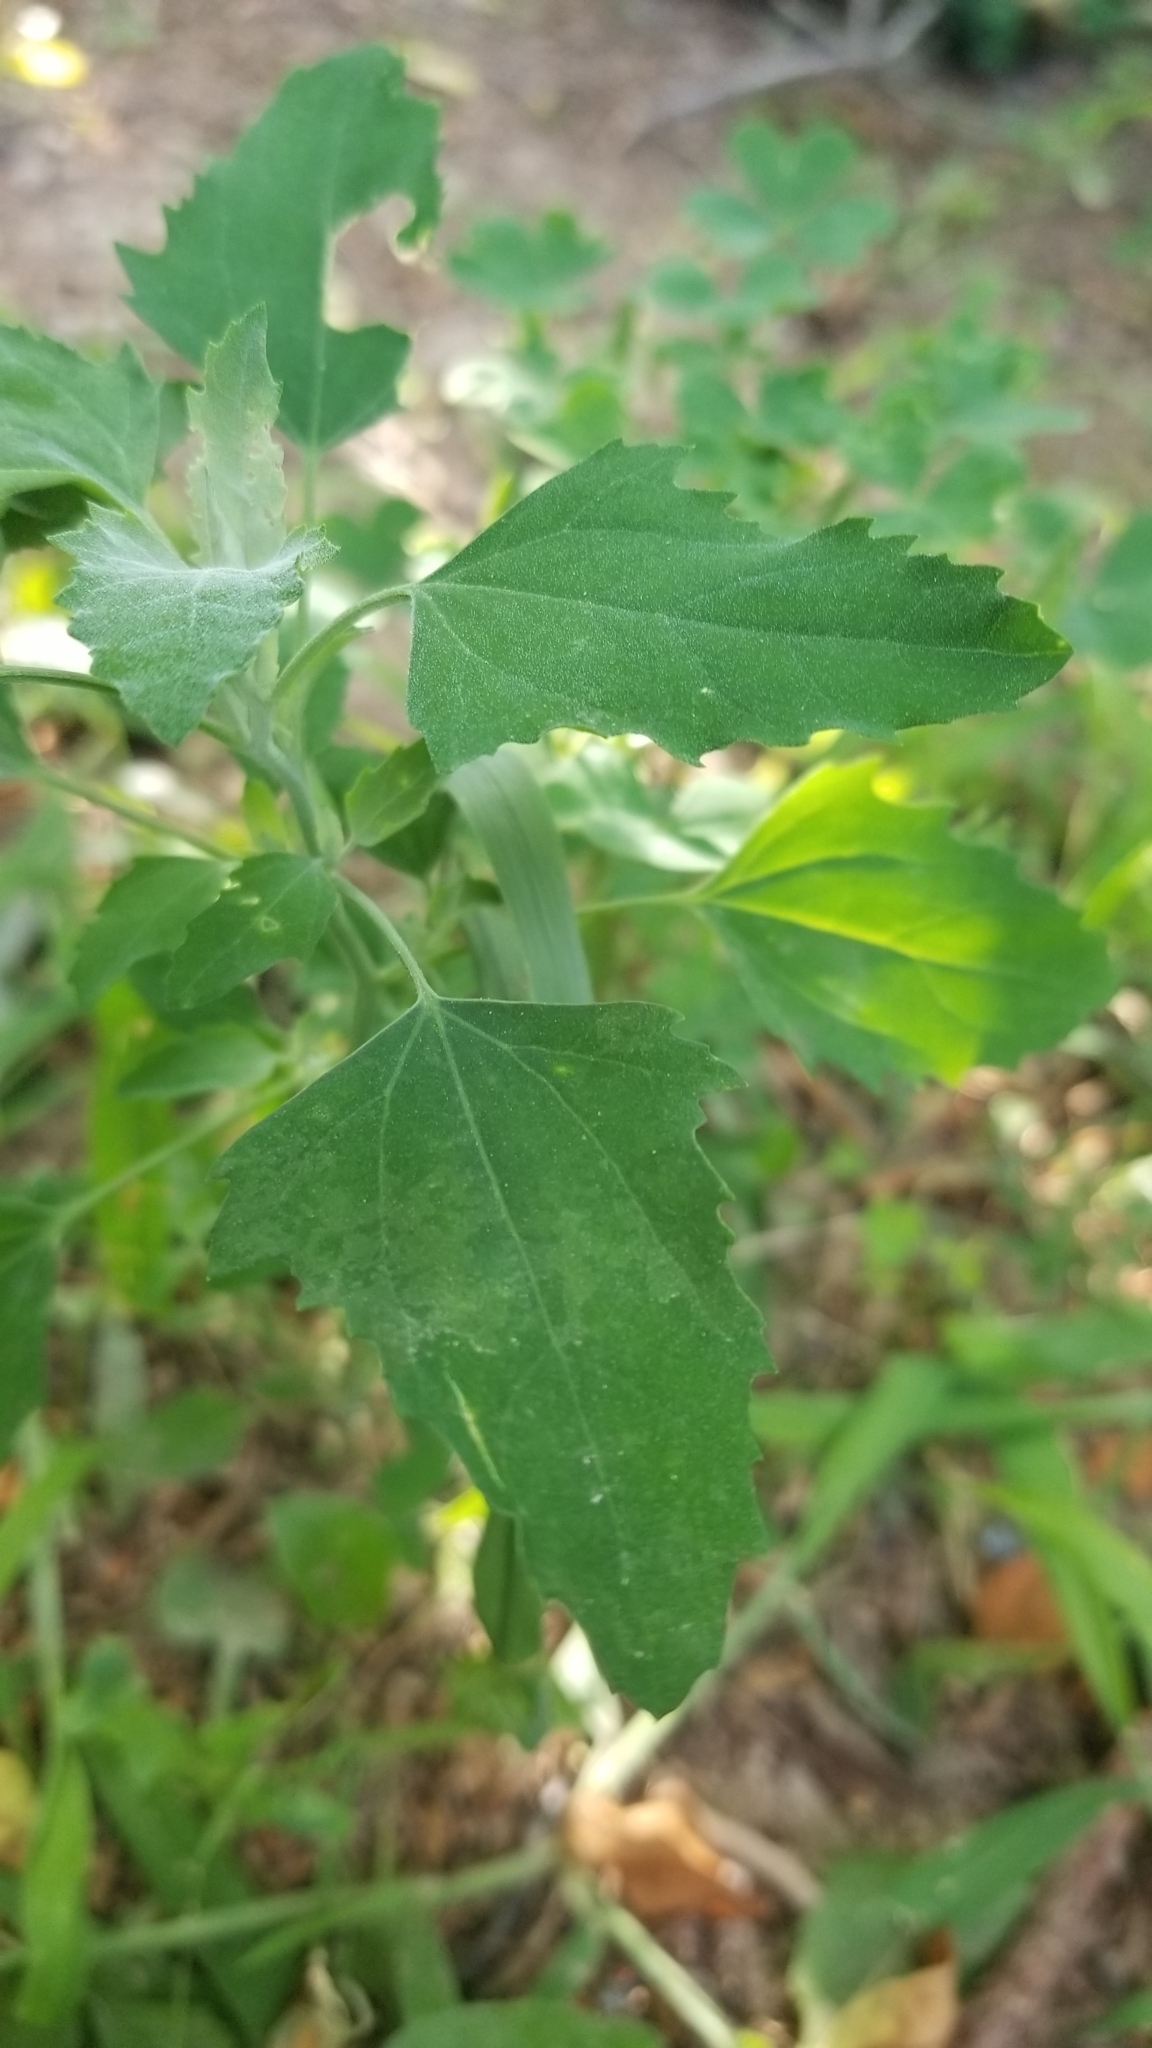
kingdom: Plantae
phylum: Tracheophyta
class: Magnoliopsida
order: Caryophyllales
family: Amaranthaceae
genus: Chenopodium
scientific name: Chenopodium album
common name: Fat-hen
